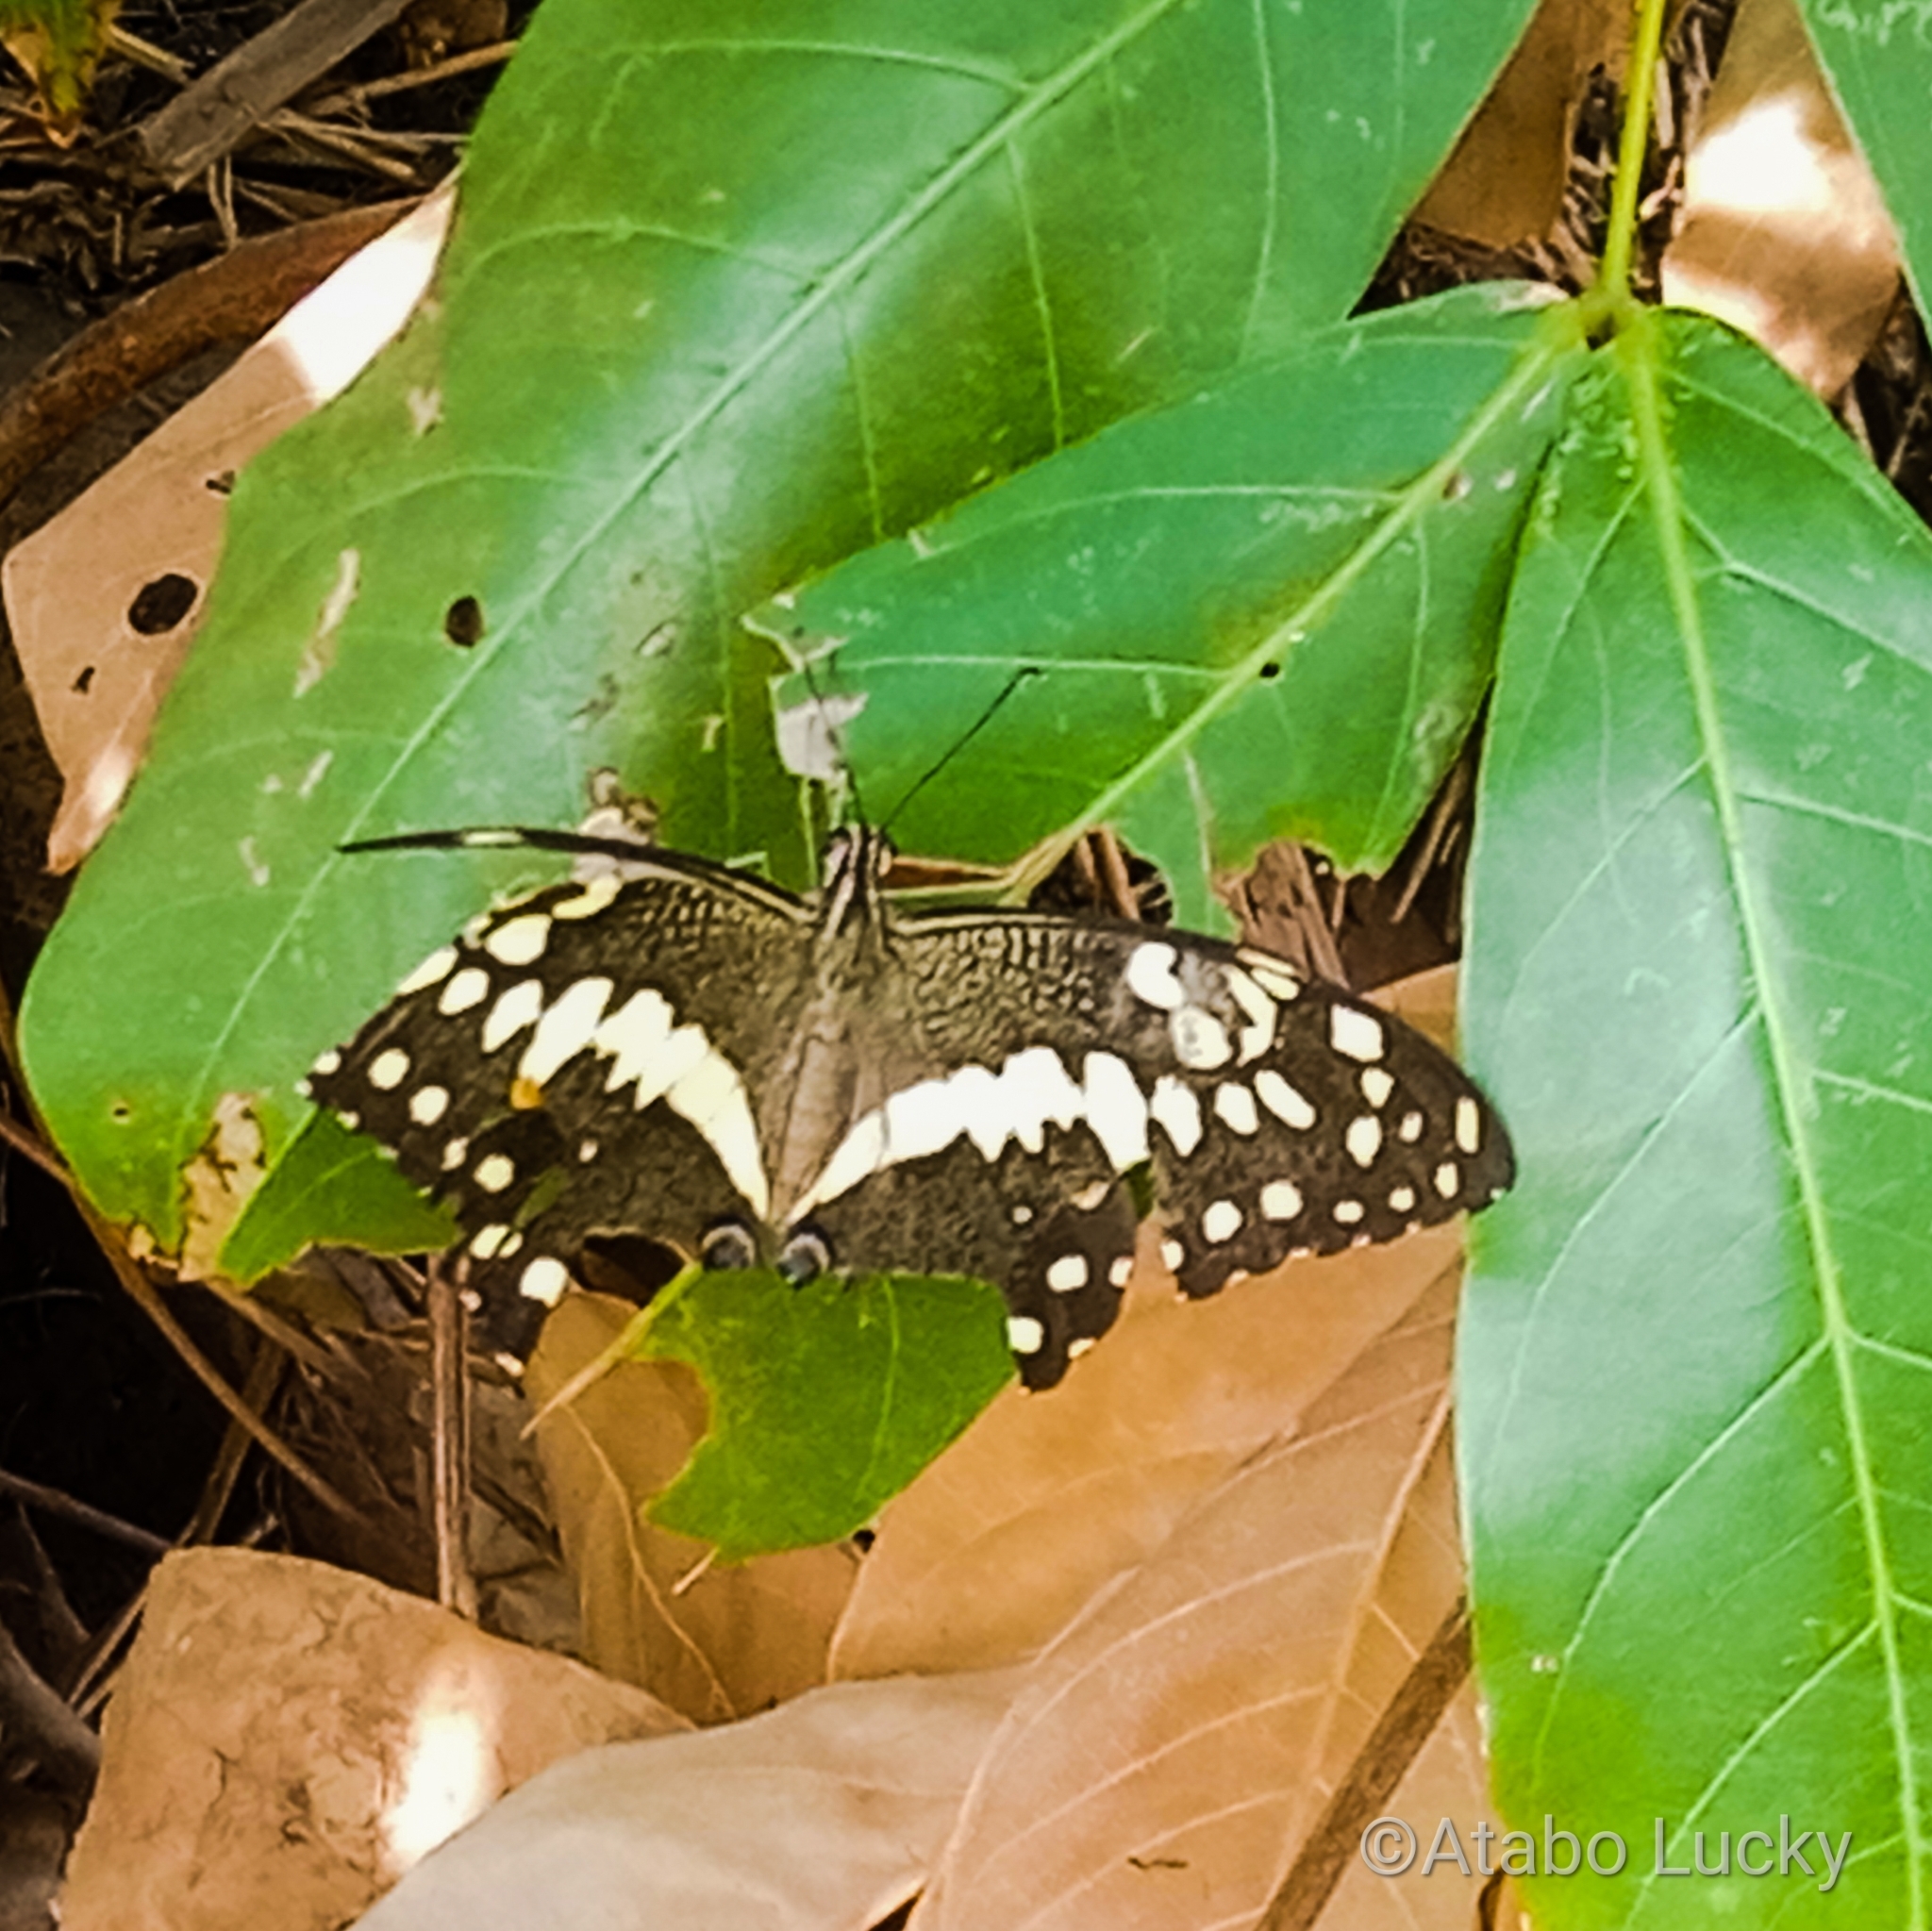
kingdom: Animalia
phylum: Arthropoda
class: Insecta
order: Lepidoptera
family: Papilionidae
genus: Papilio
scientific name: Papilio demodocus
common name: Christmas butterfly
